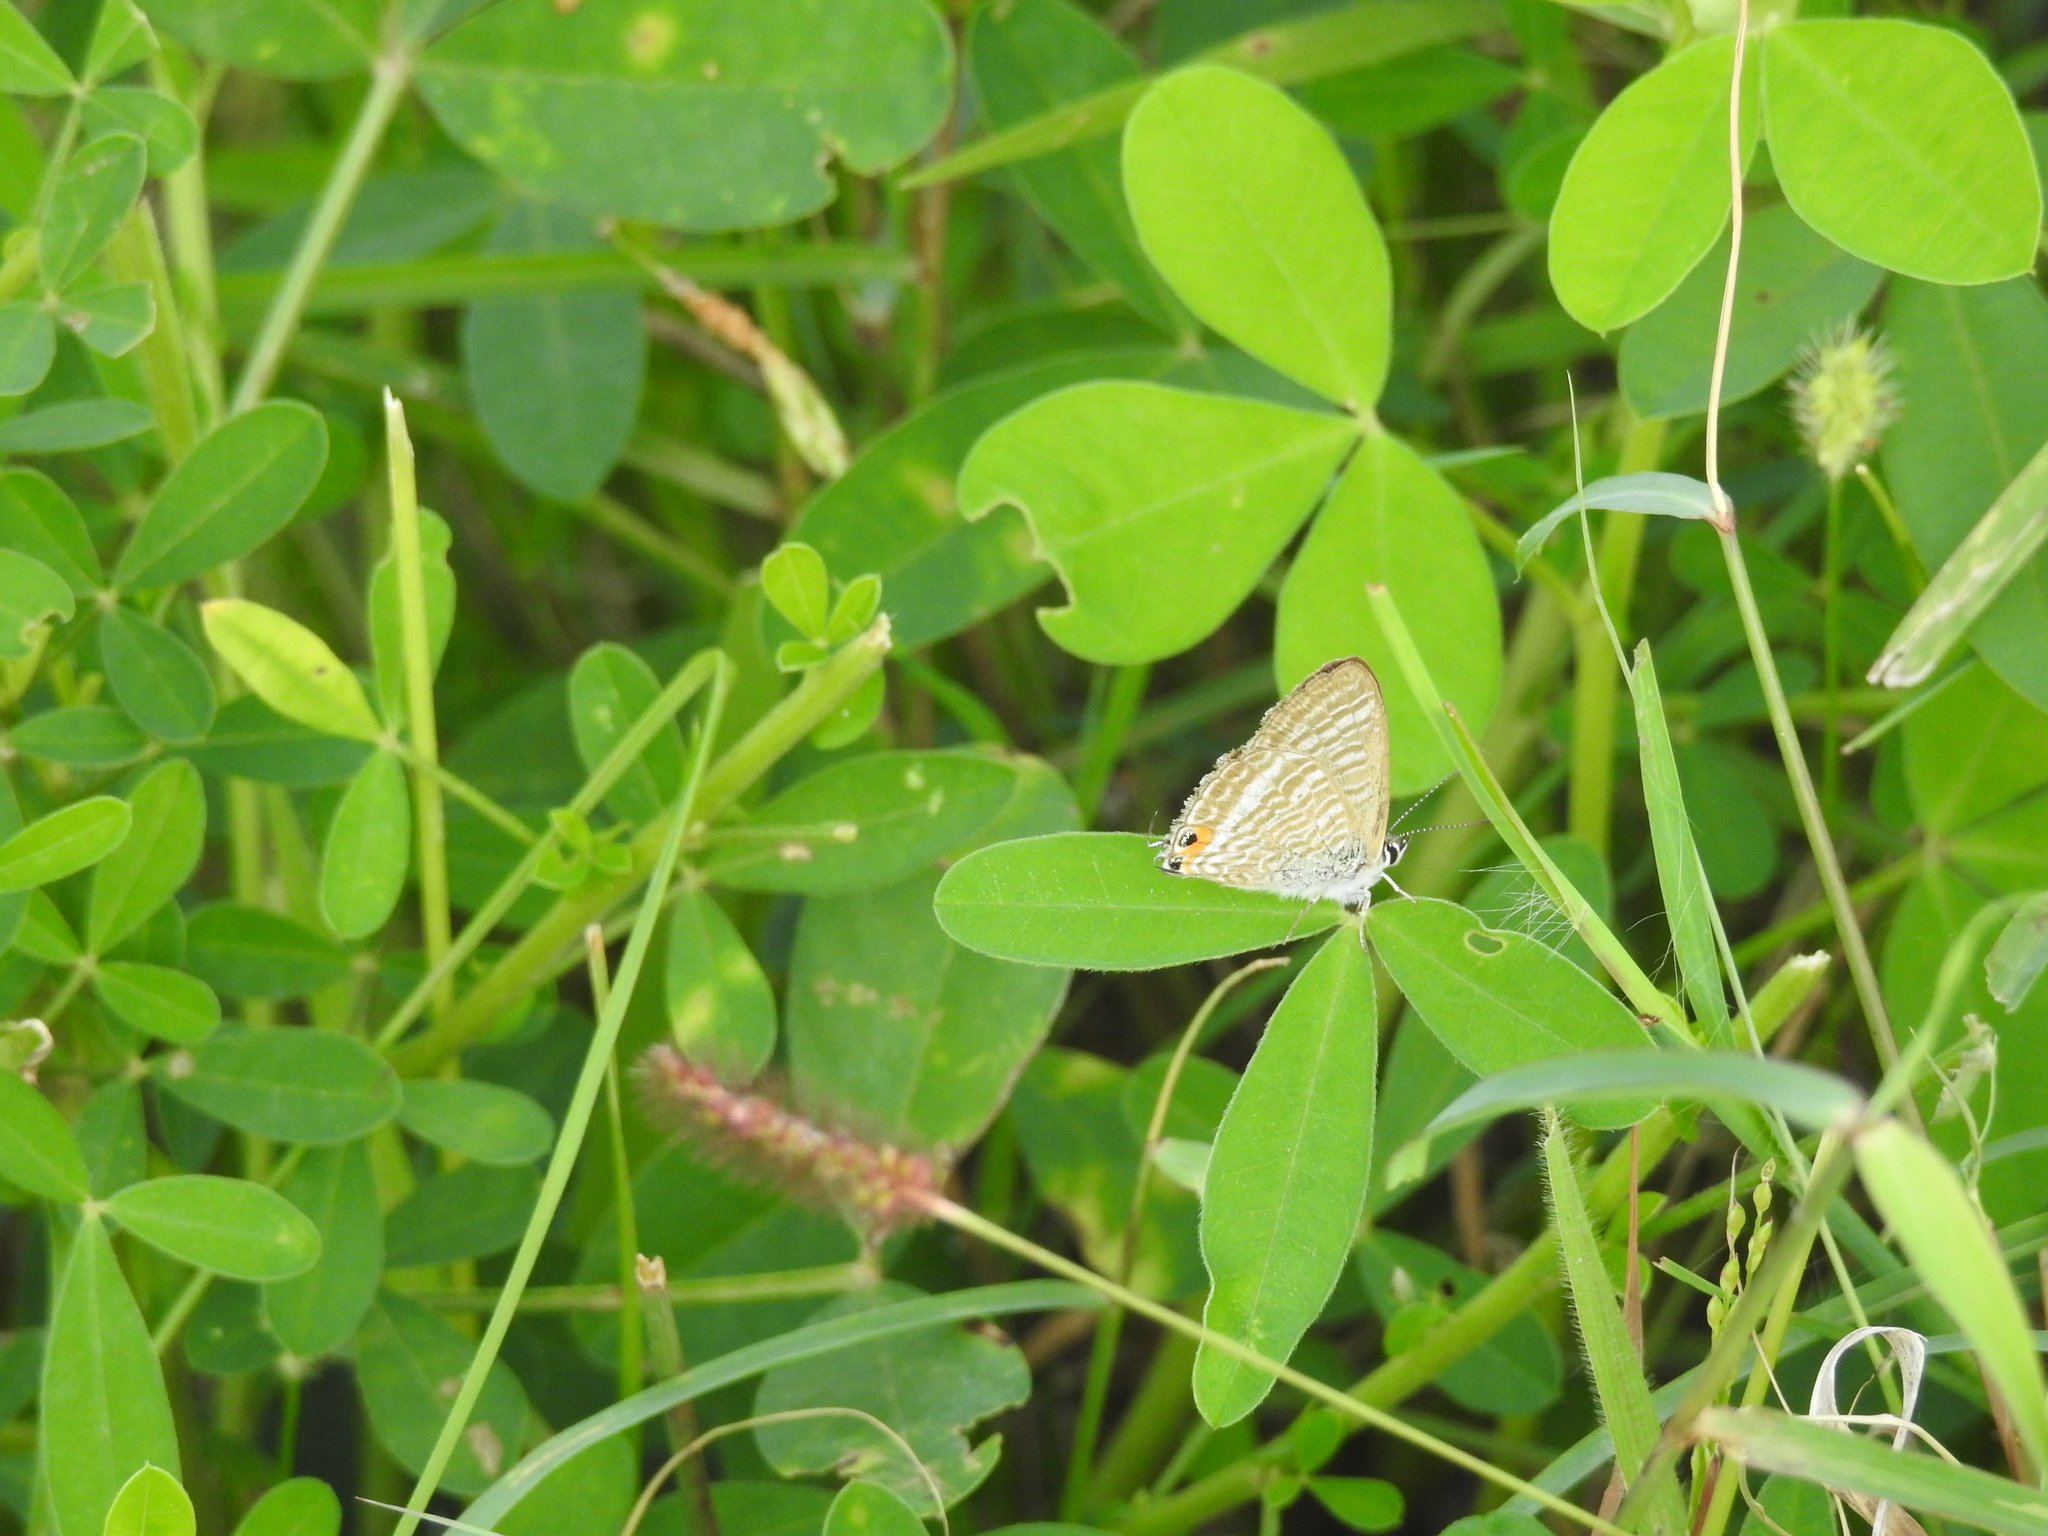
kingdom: Animalia
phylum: Arthropoda
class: Insecta
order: Lepidoptera
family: Lycaenidae
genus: Lampides
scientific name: Lampides boeticus
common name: Long-tailed blue
